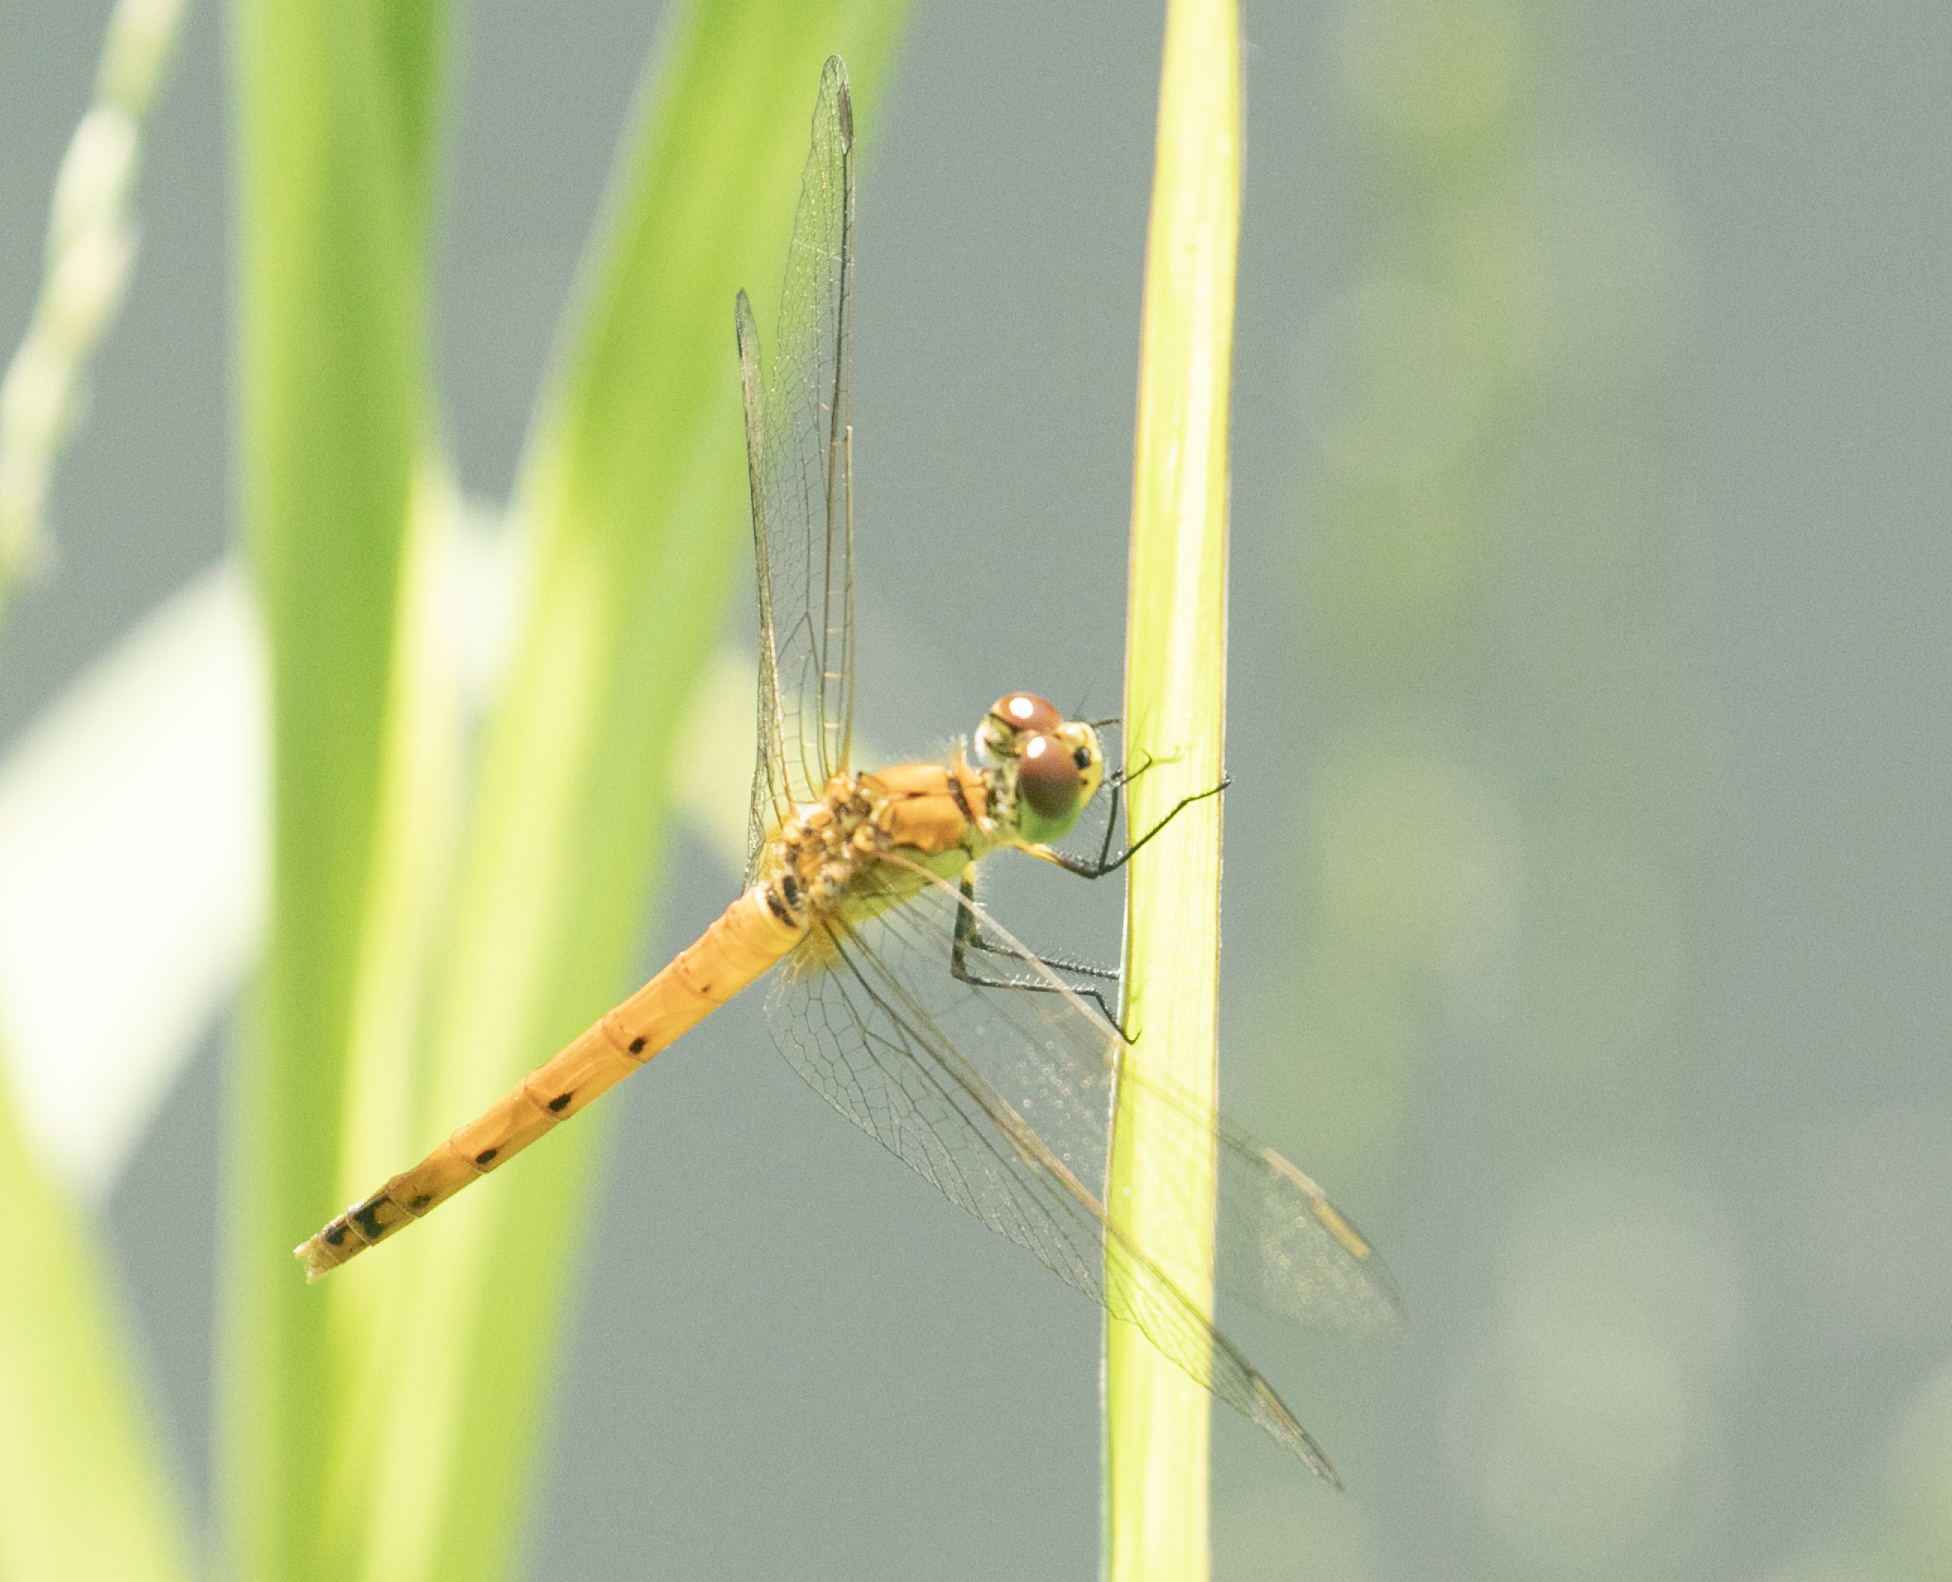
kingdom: Animalia
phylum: Arthropoda
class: Insecta
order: Odonata
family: Libellulidae
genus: Sympetrum
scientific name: Sympetrum depressiusculum
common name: Spotted darter
